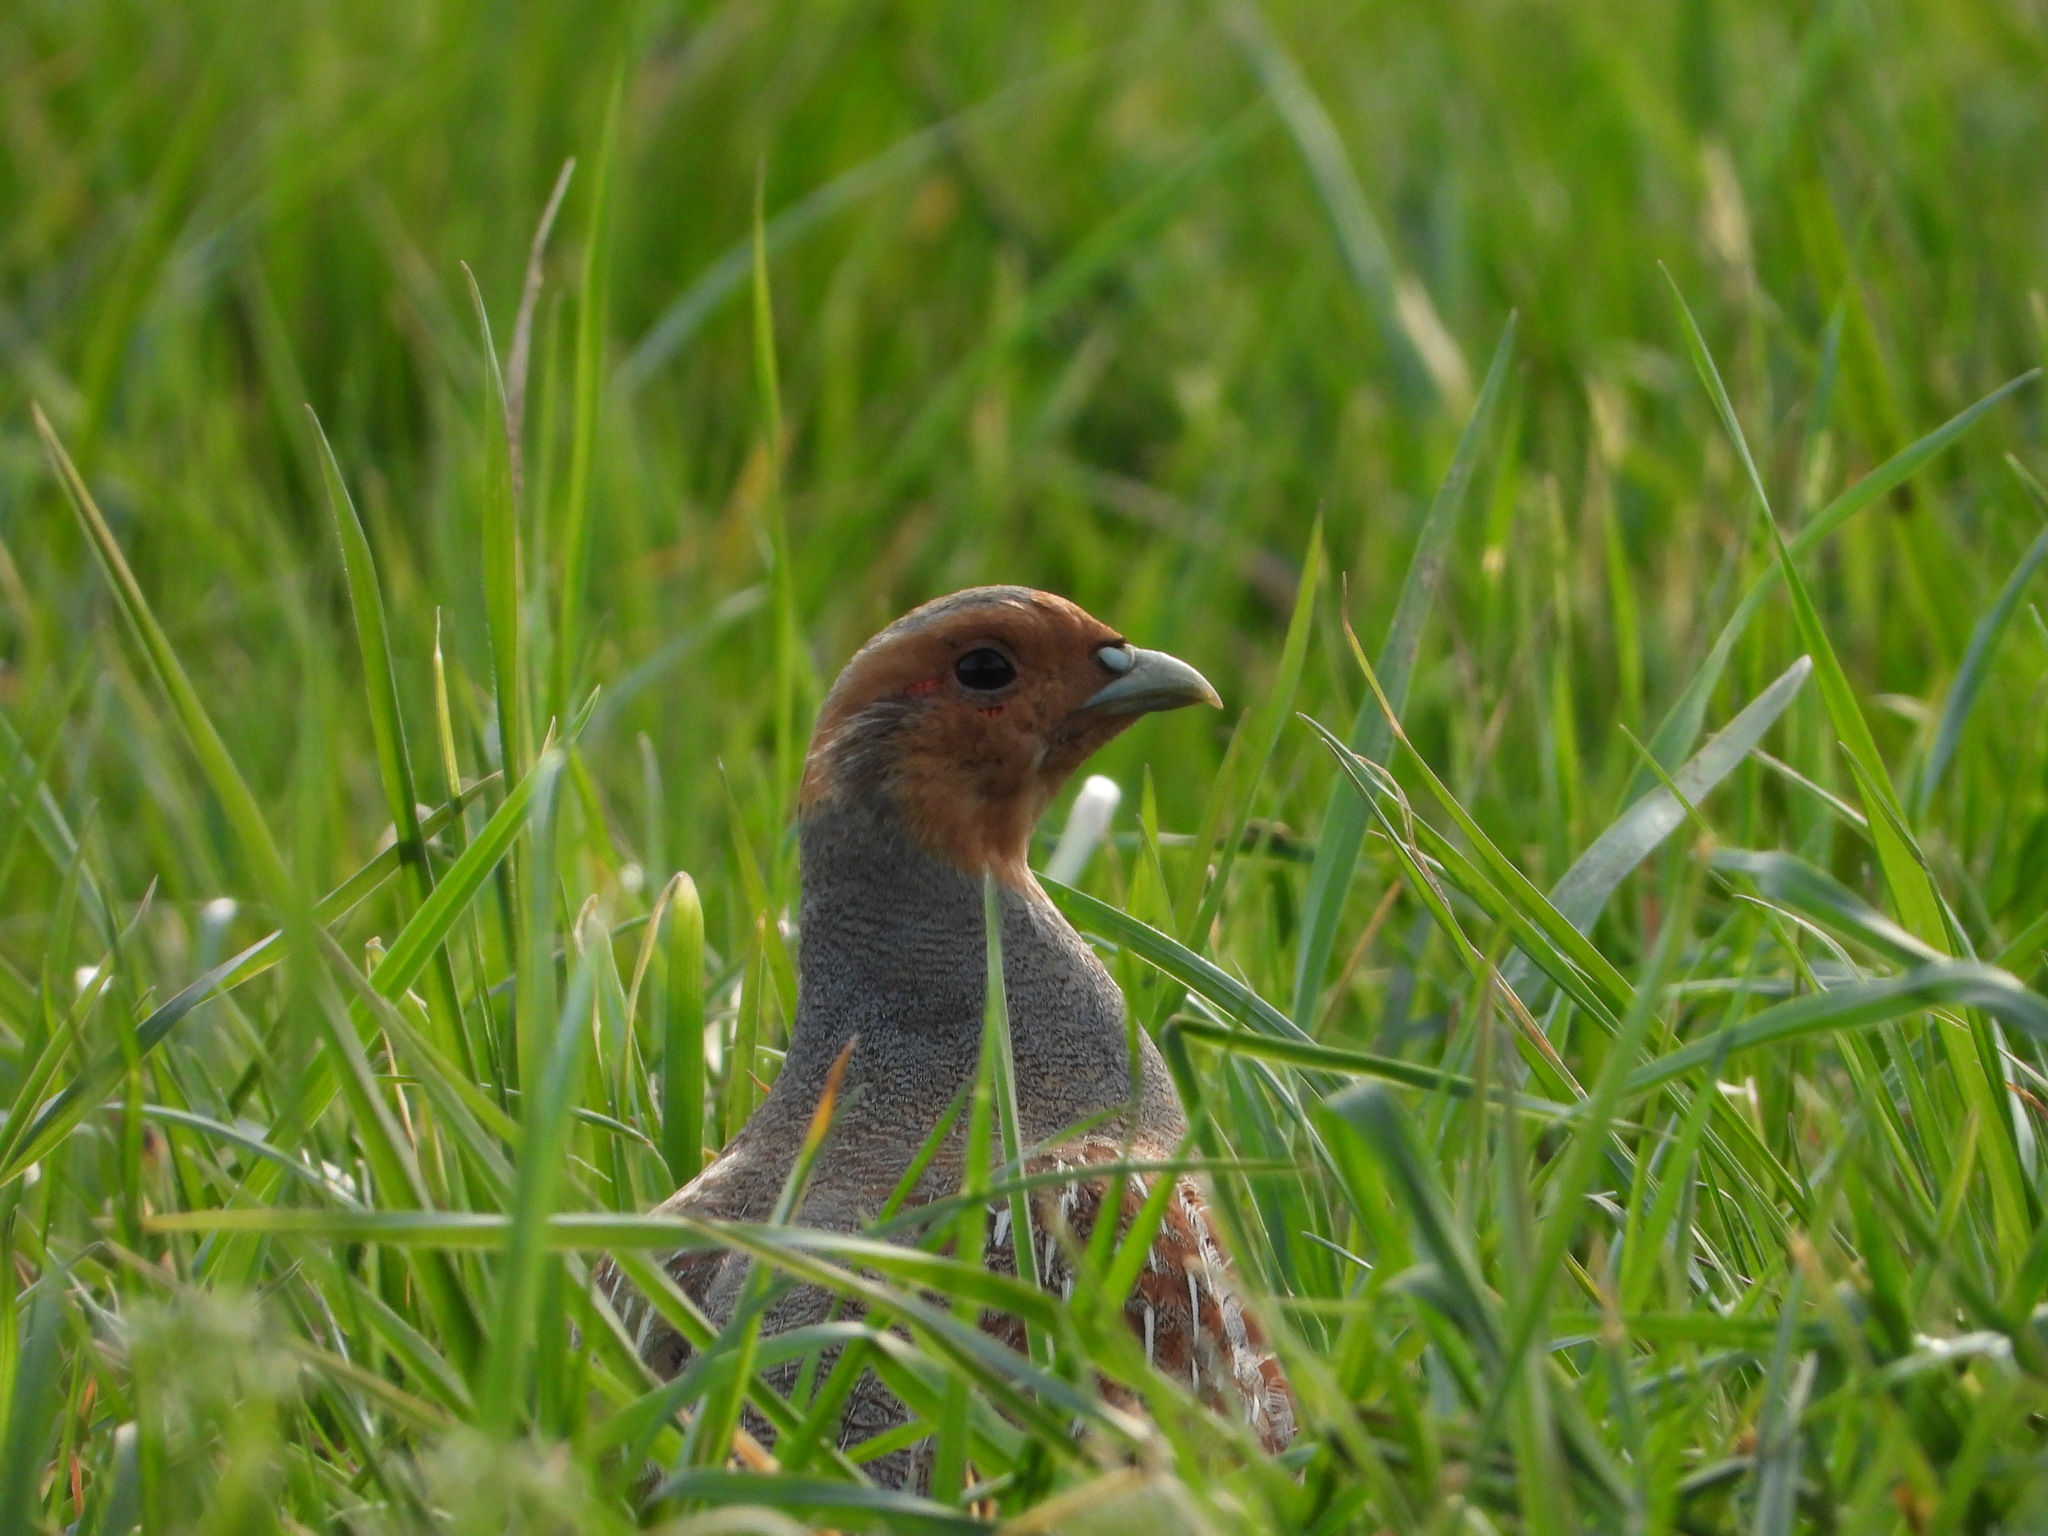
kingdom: Animalia
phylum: Chordata
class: Aves
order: Galliformes
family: Phasianidae
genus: Perdix
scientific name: Perdix perdix
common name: Grey partridge
